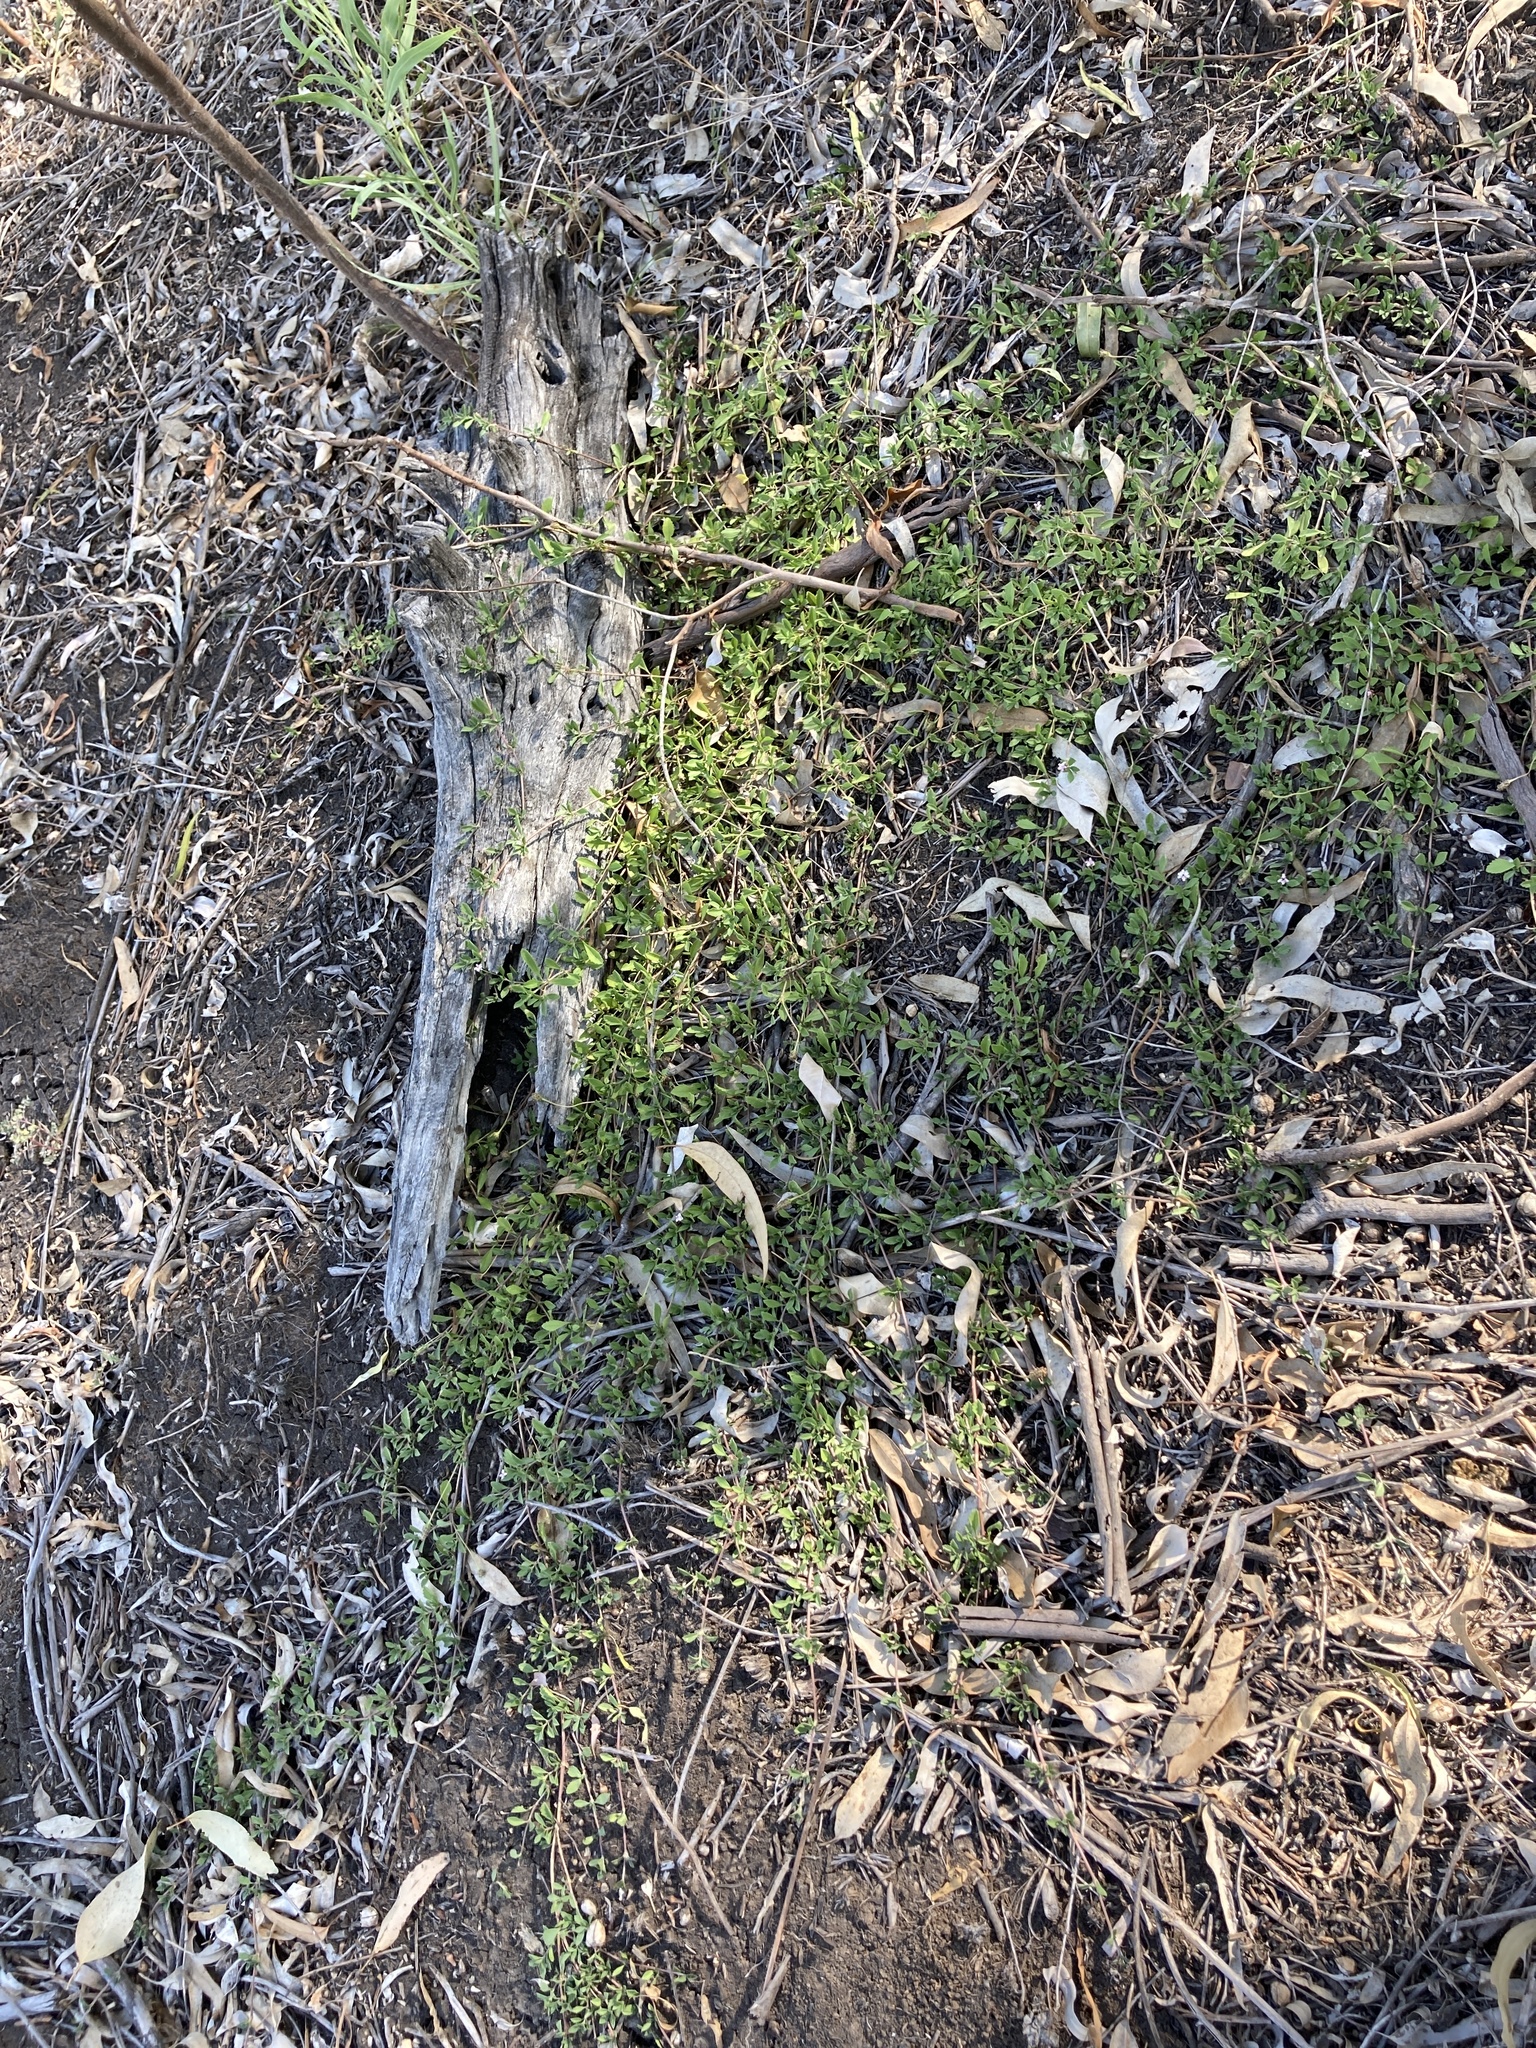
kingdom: Plantae
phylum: Tracheophyta
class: Magnoliopsida
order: Lamiales
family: Verbenaceae
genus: Phyla
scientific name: Phyla nodiflora
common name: Frogfruit
